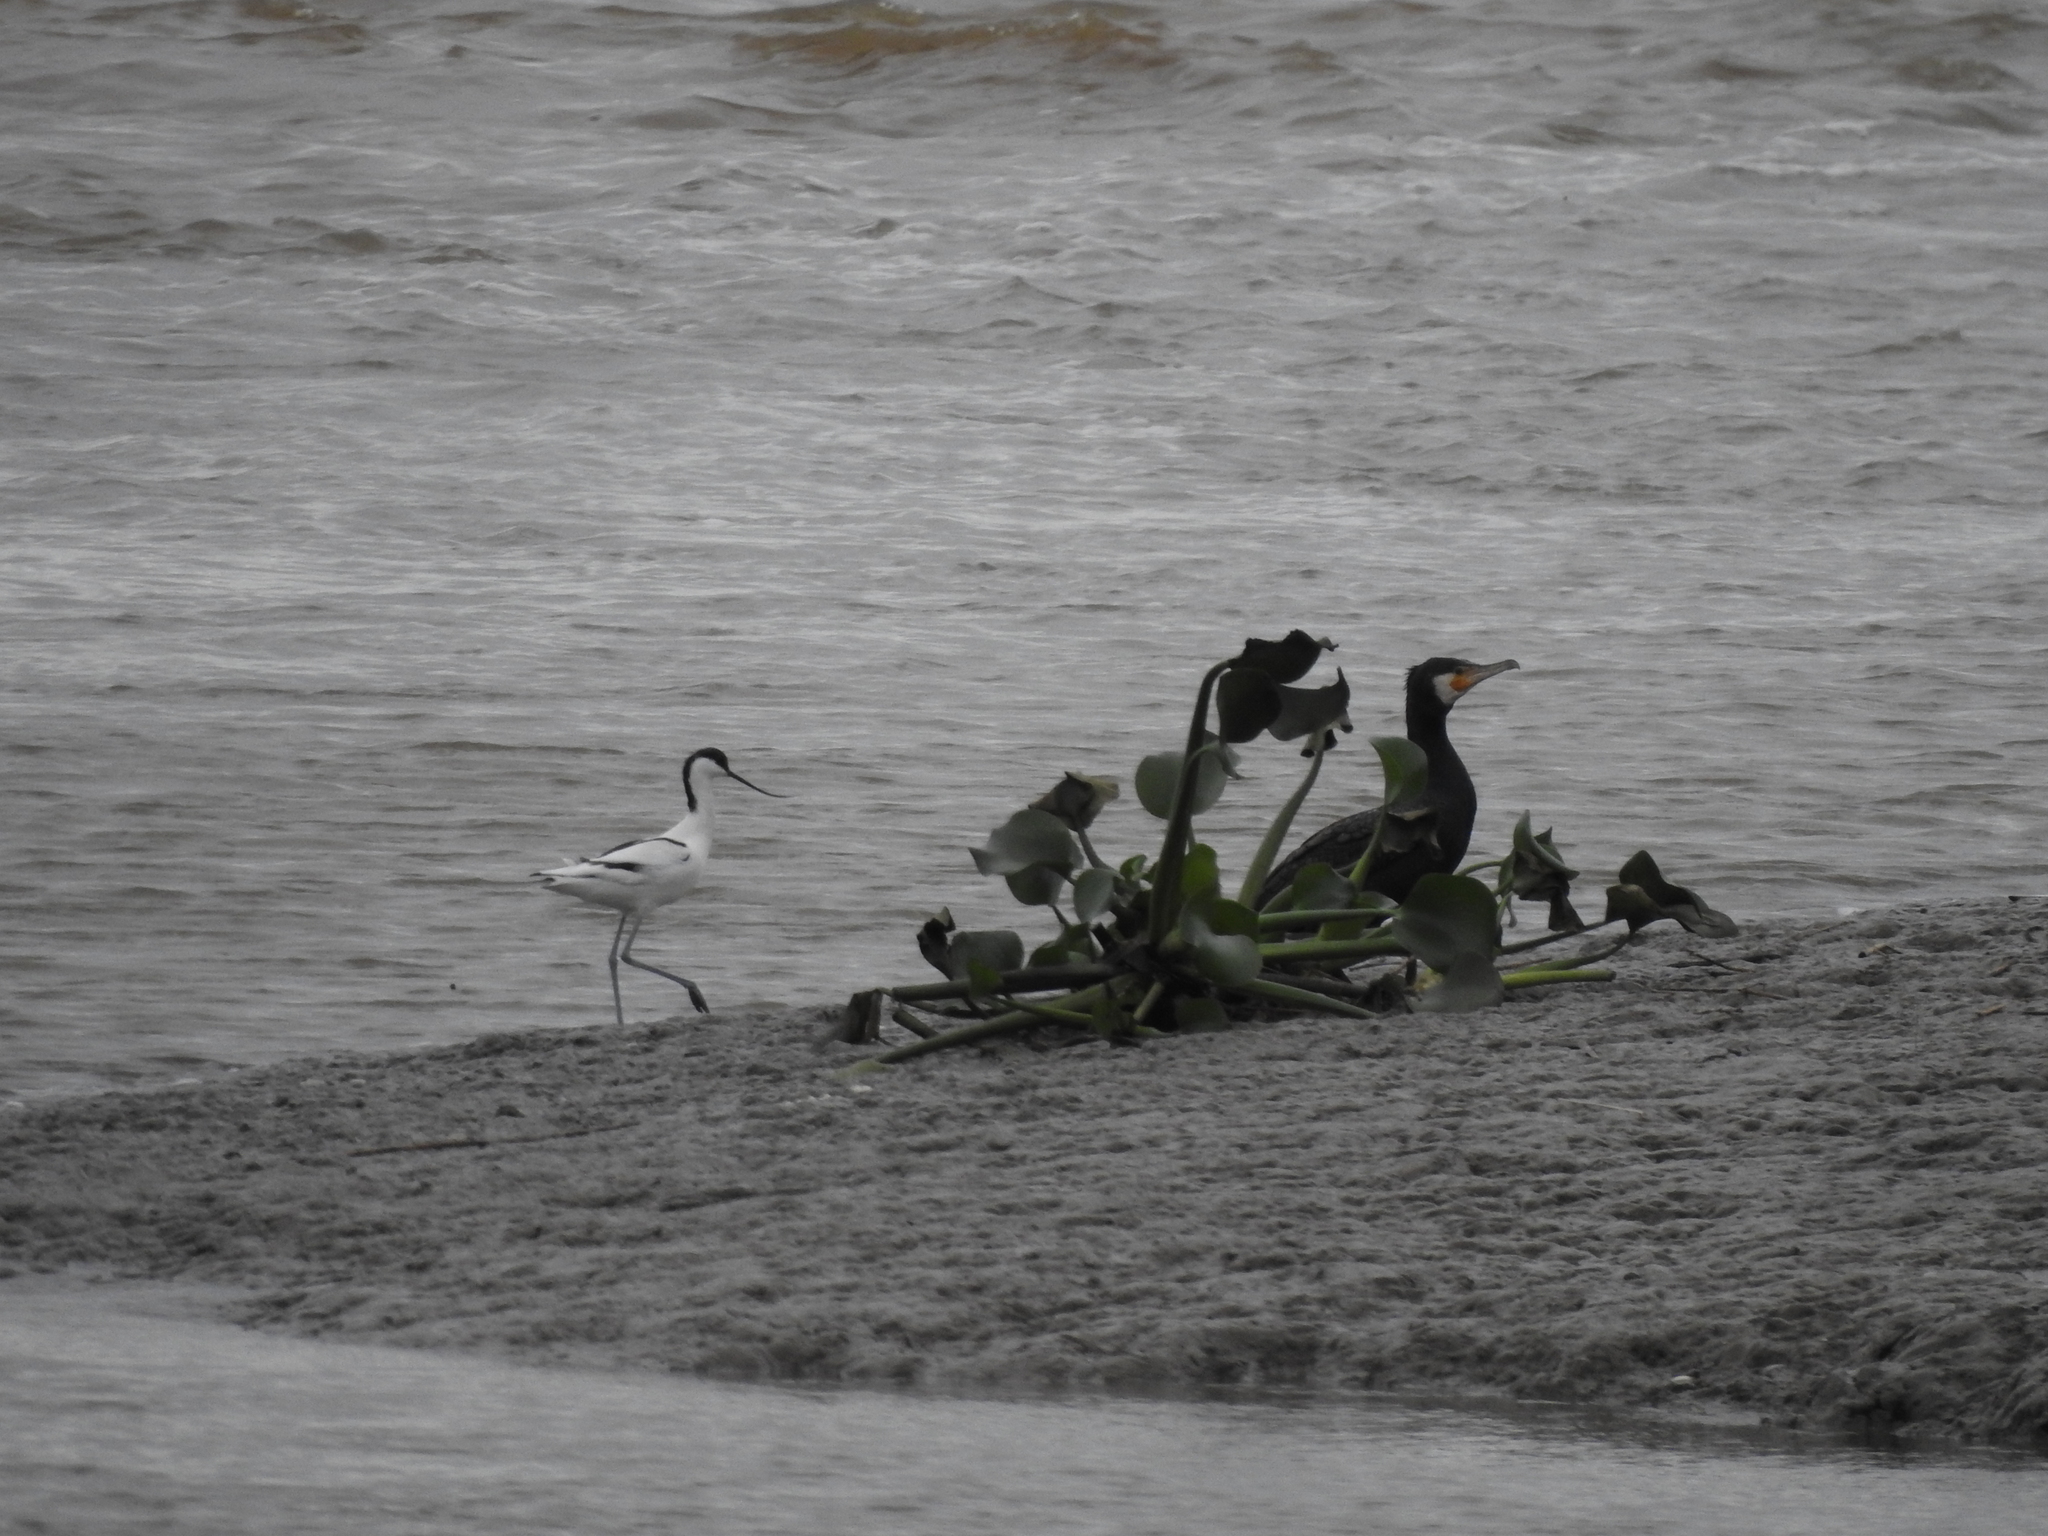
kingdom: Animalia
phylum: Chordata
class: Aves
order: Charadriiformes
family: Recurvirostridae
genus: Recurvirostra
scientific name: Recurvirostra avosetta
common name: Pied avocet
